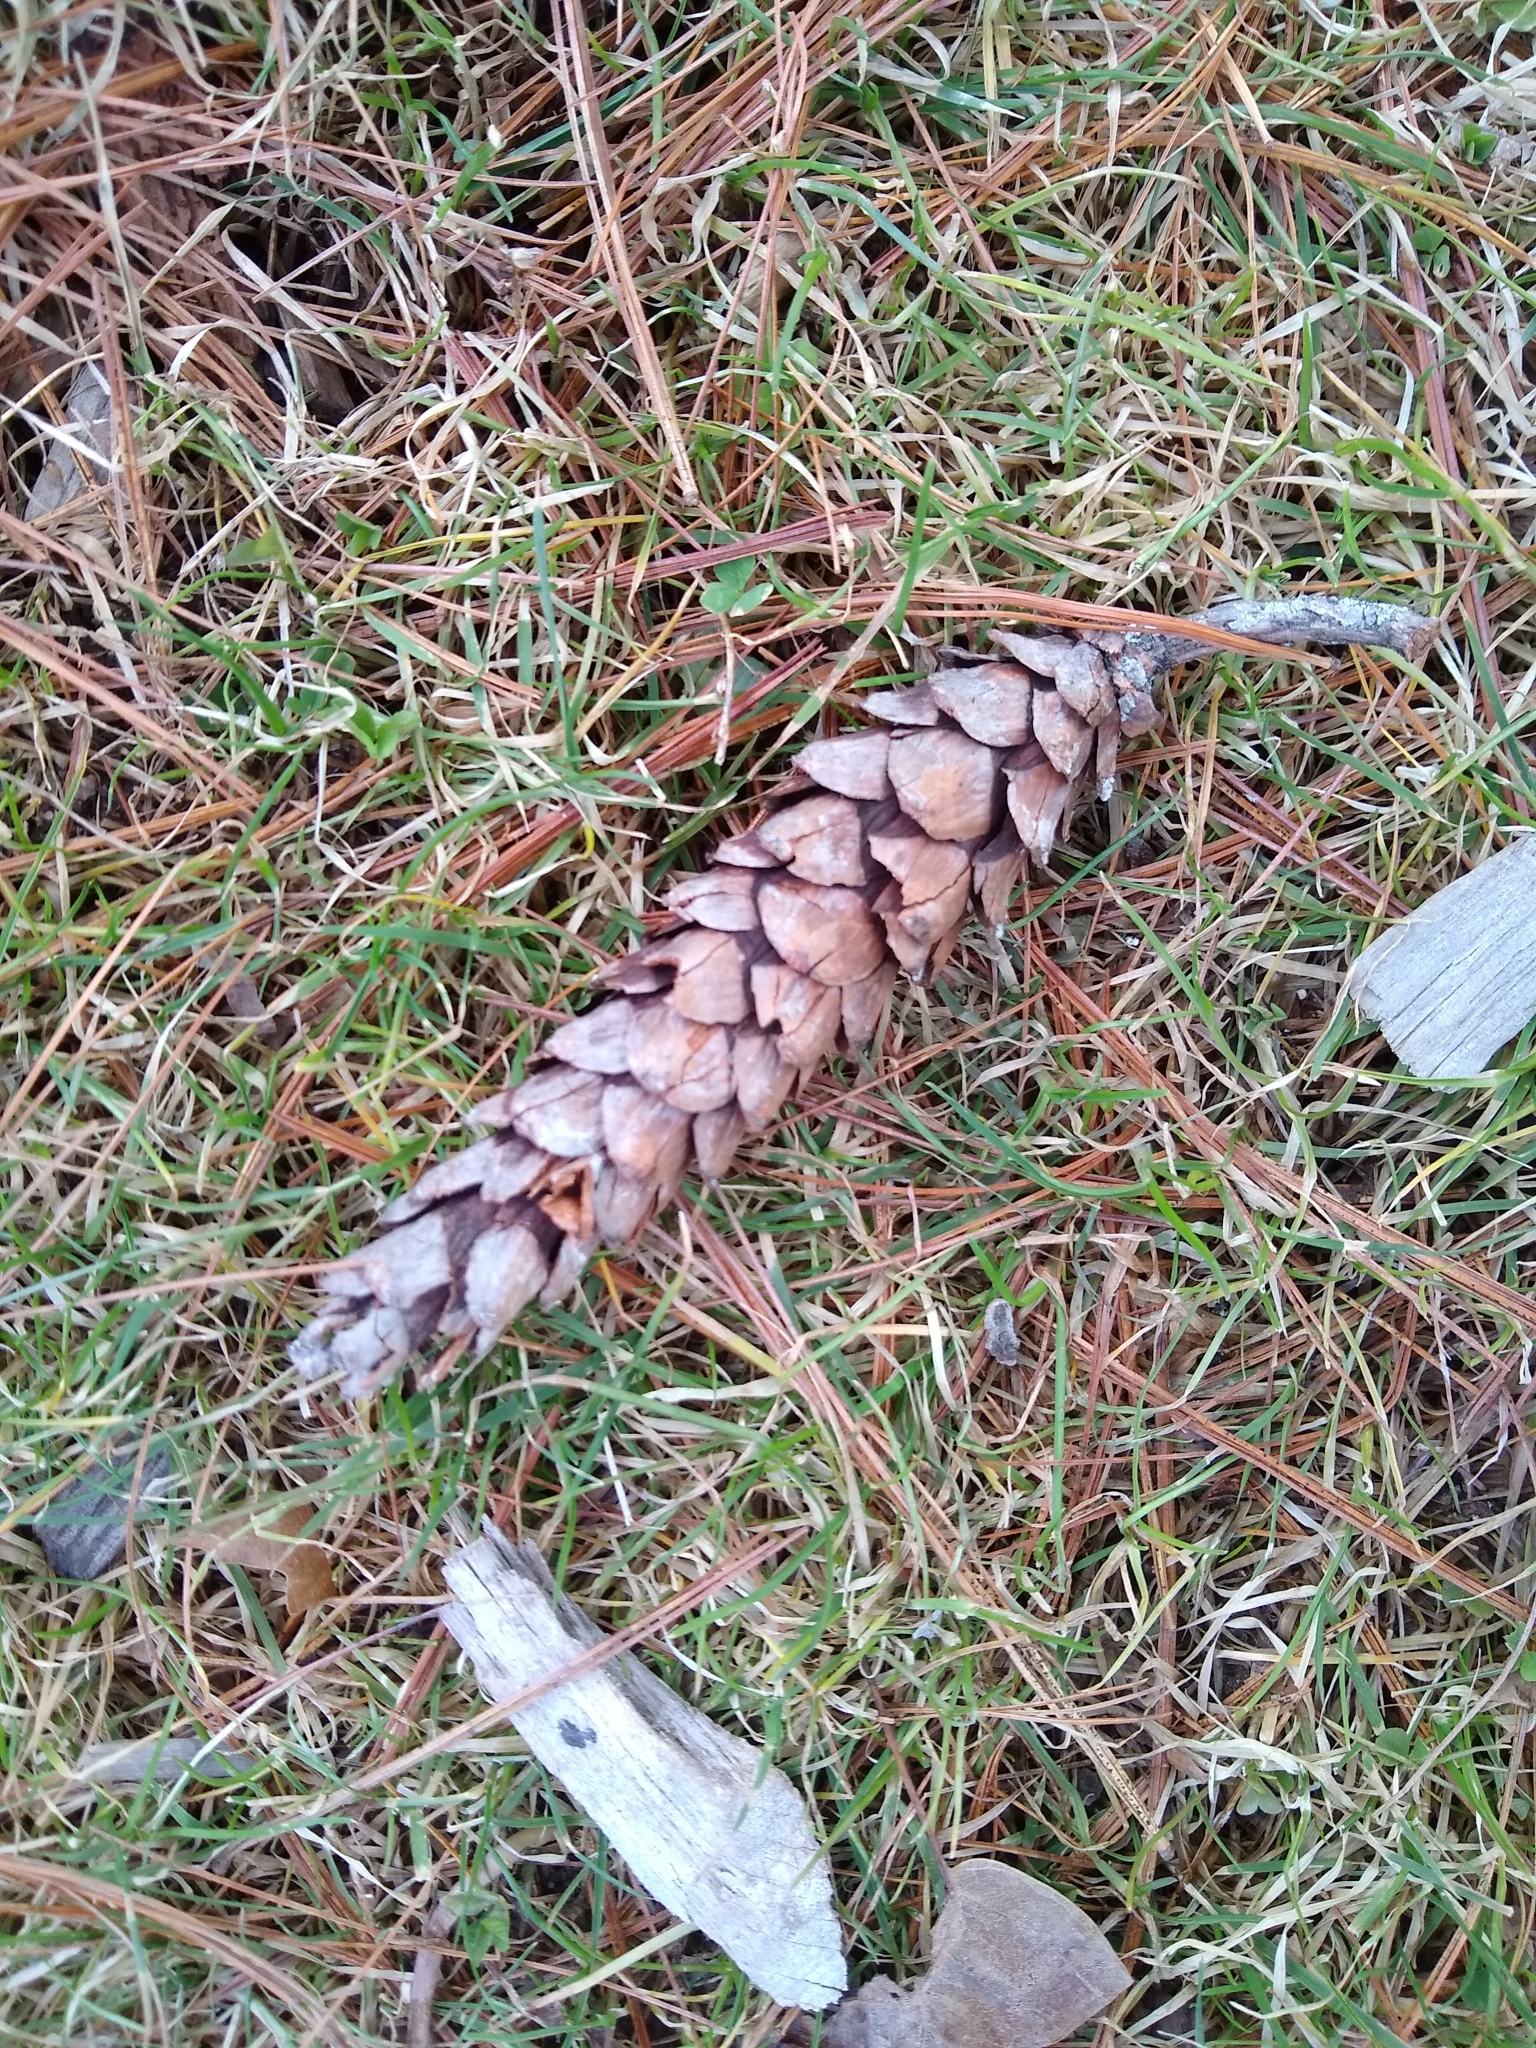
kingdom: Plantae
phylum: Tracheophyta
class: Pinopsida
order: Pinales
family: Pinaceae
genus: Pinus
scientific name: Pinus strobus
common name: Weymouth pine
